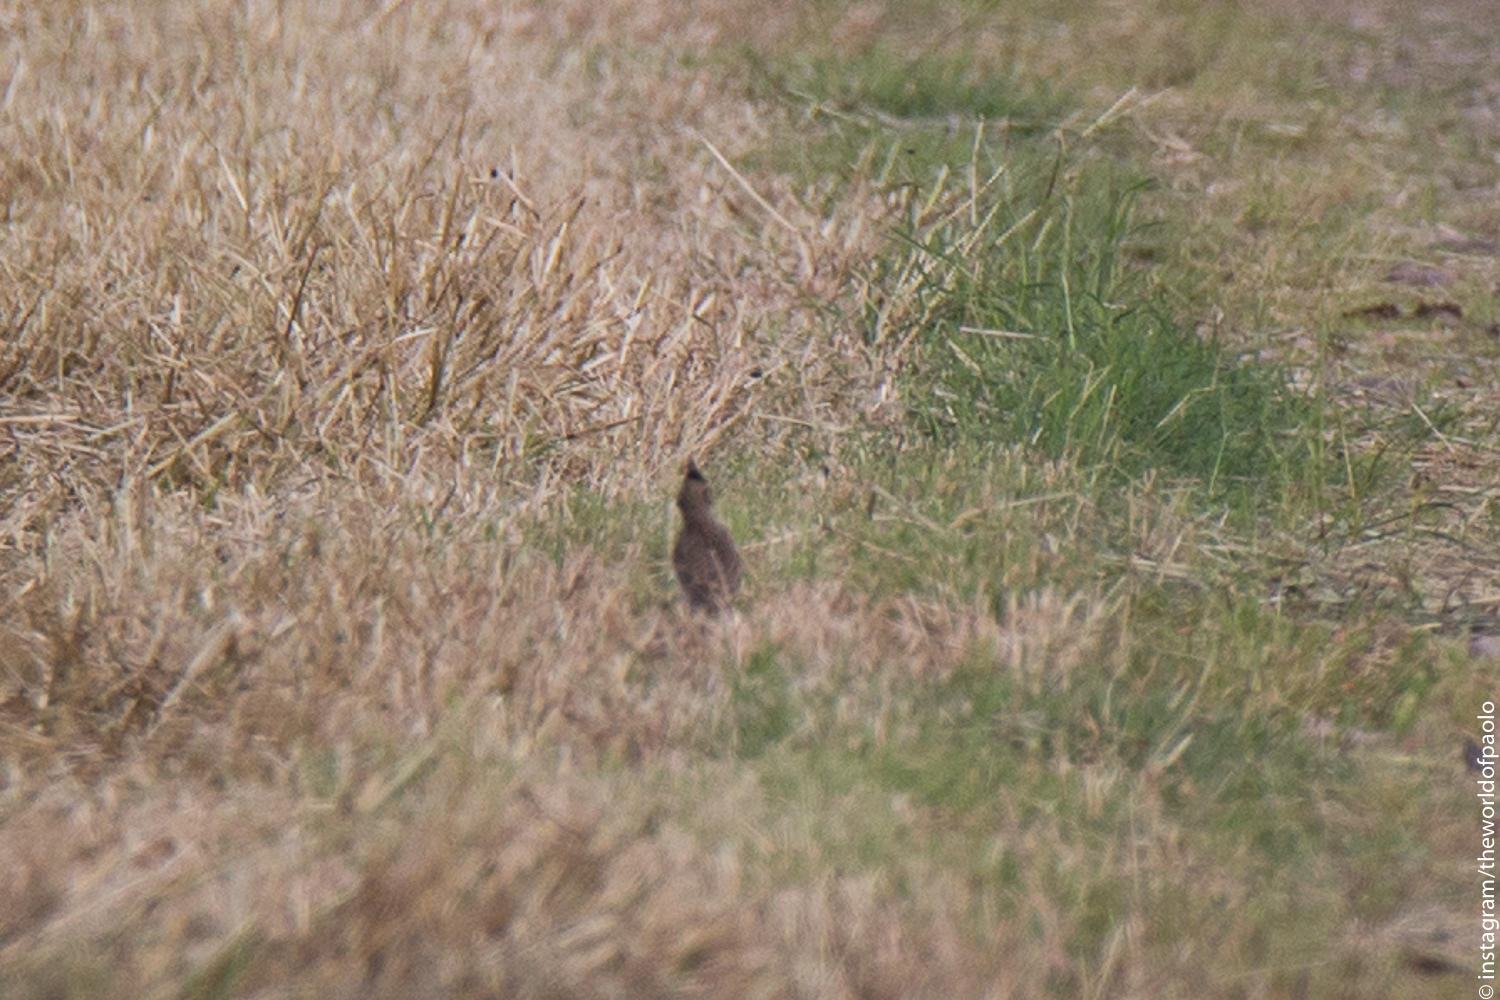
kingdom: Animalia
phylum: Chordata
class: Aves
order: Passeriformes
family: Alaudidae
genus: Galerida
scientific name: Galerida cristata
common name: Crested lark
